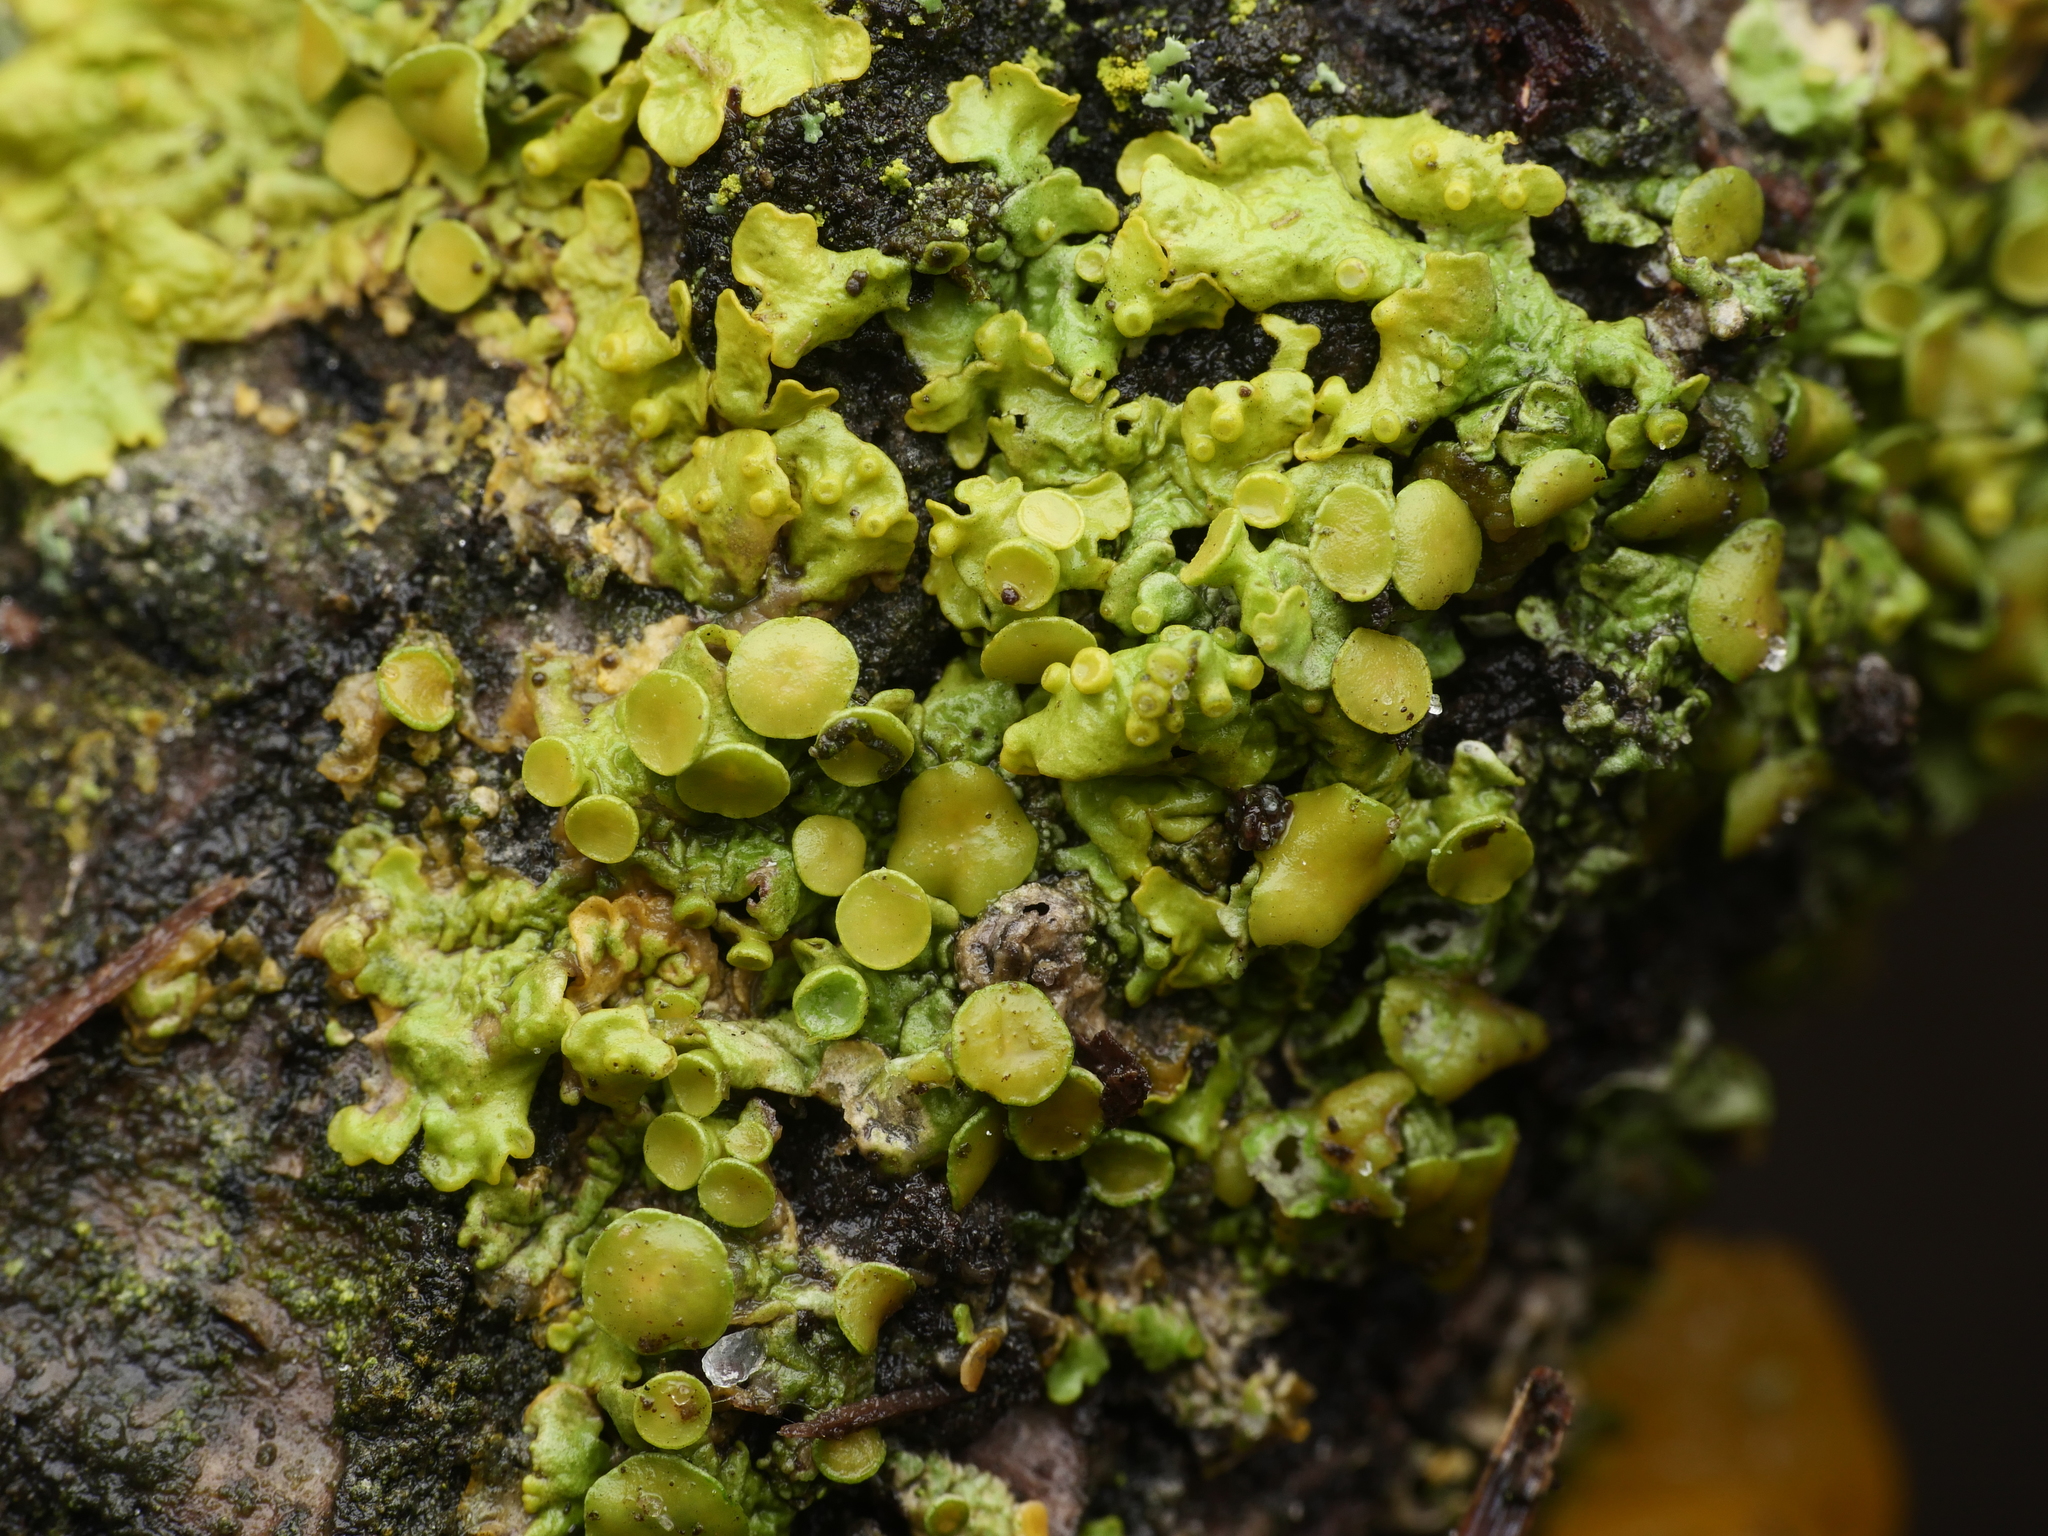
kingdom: Fungi
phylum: Ascomycota
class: Lecanoromycetes
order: Teloschistales
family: Teloschistaceae
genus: Xanthoria
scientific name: Xanthoria parietina
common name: Common orange lichen
